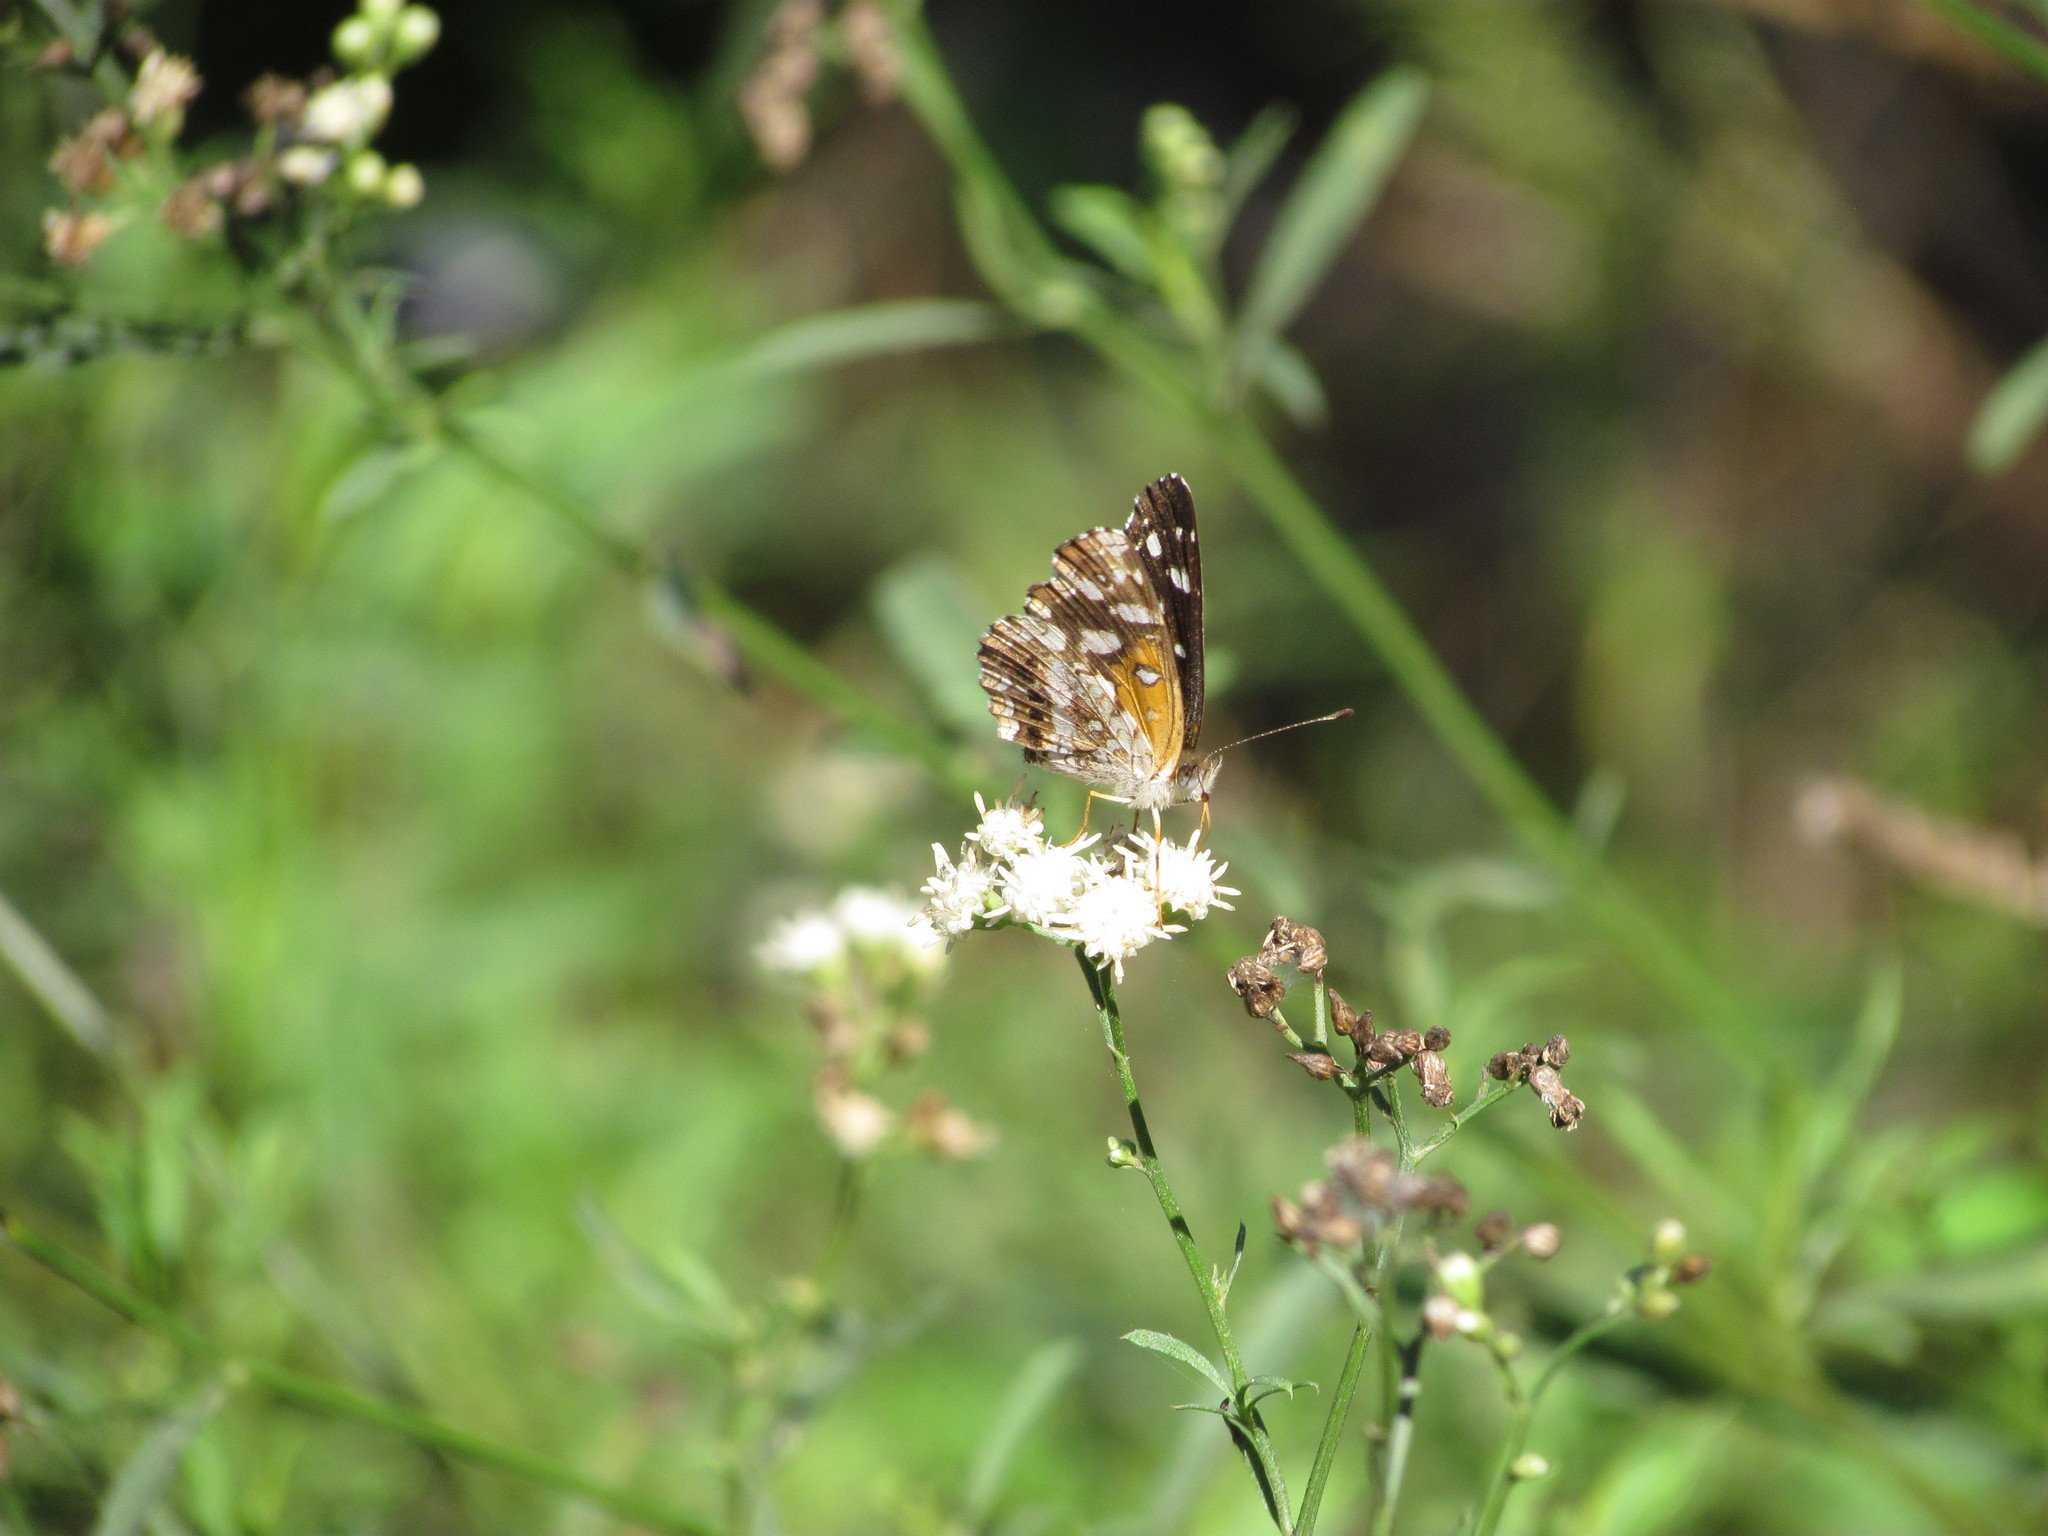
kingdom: Animalia
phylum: Arthropoda
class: Insecta
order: Lepidoptera
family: Nymphalidae
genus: Ortilia
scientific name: Ortilia ithra
